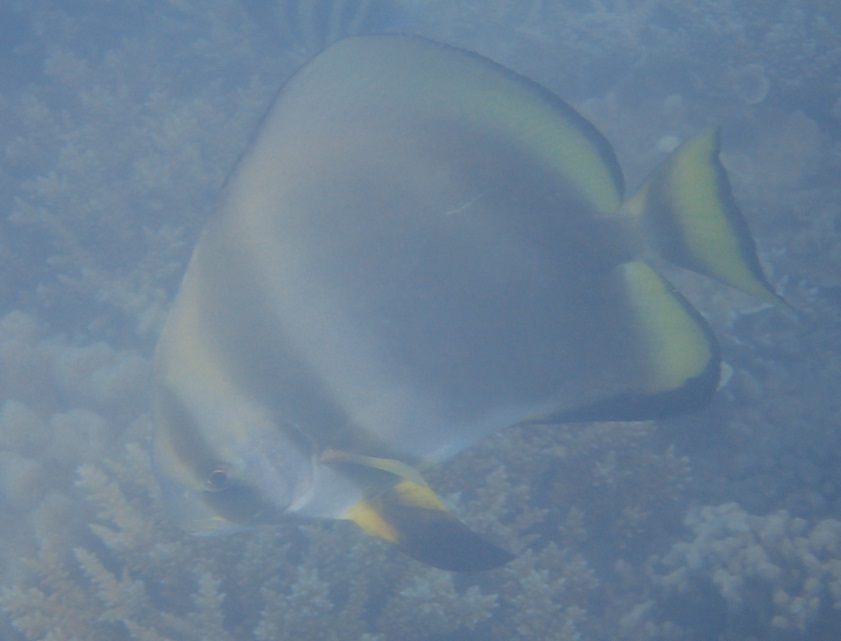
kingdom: Animalia
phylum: Chordata
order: Perciformes
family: Ephippidae
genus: Platax
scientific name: Platax orbicularis
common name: Batfish
